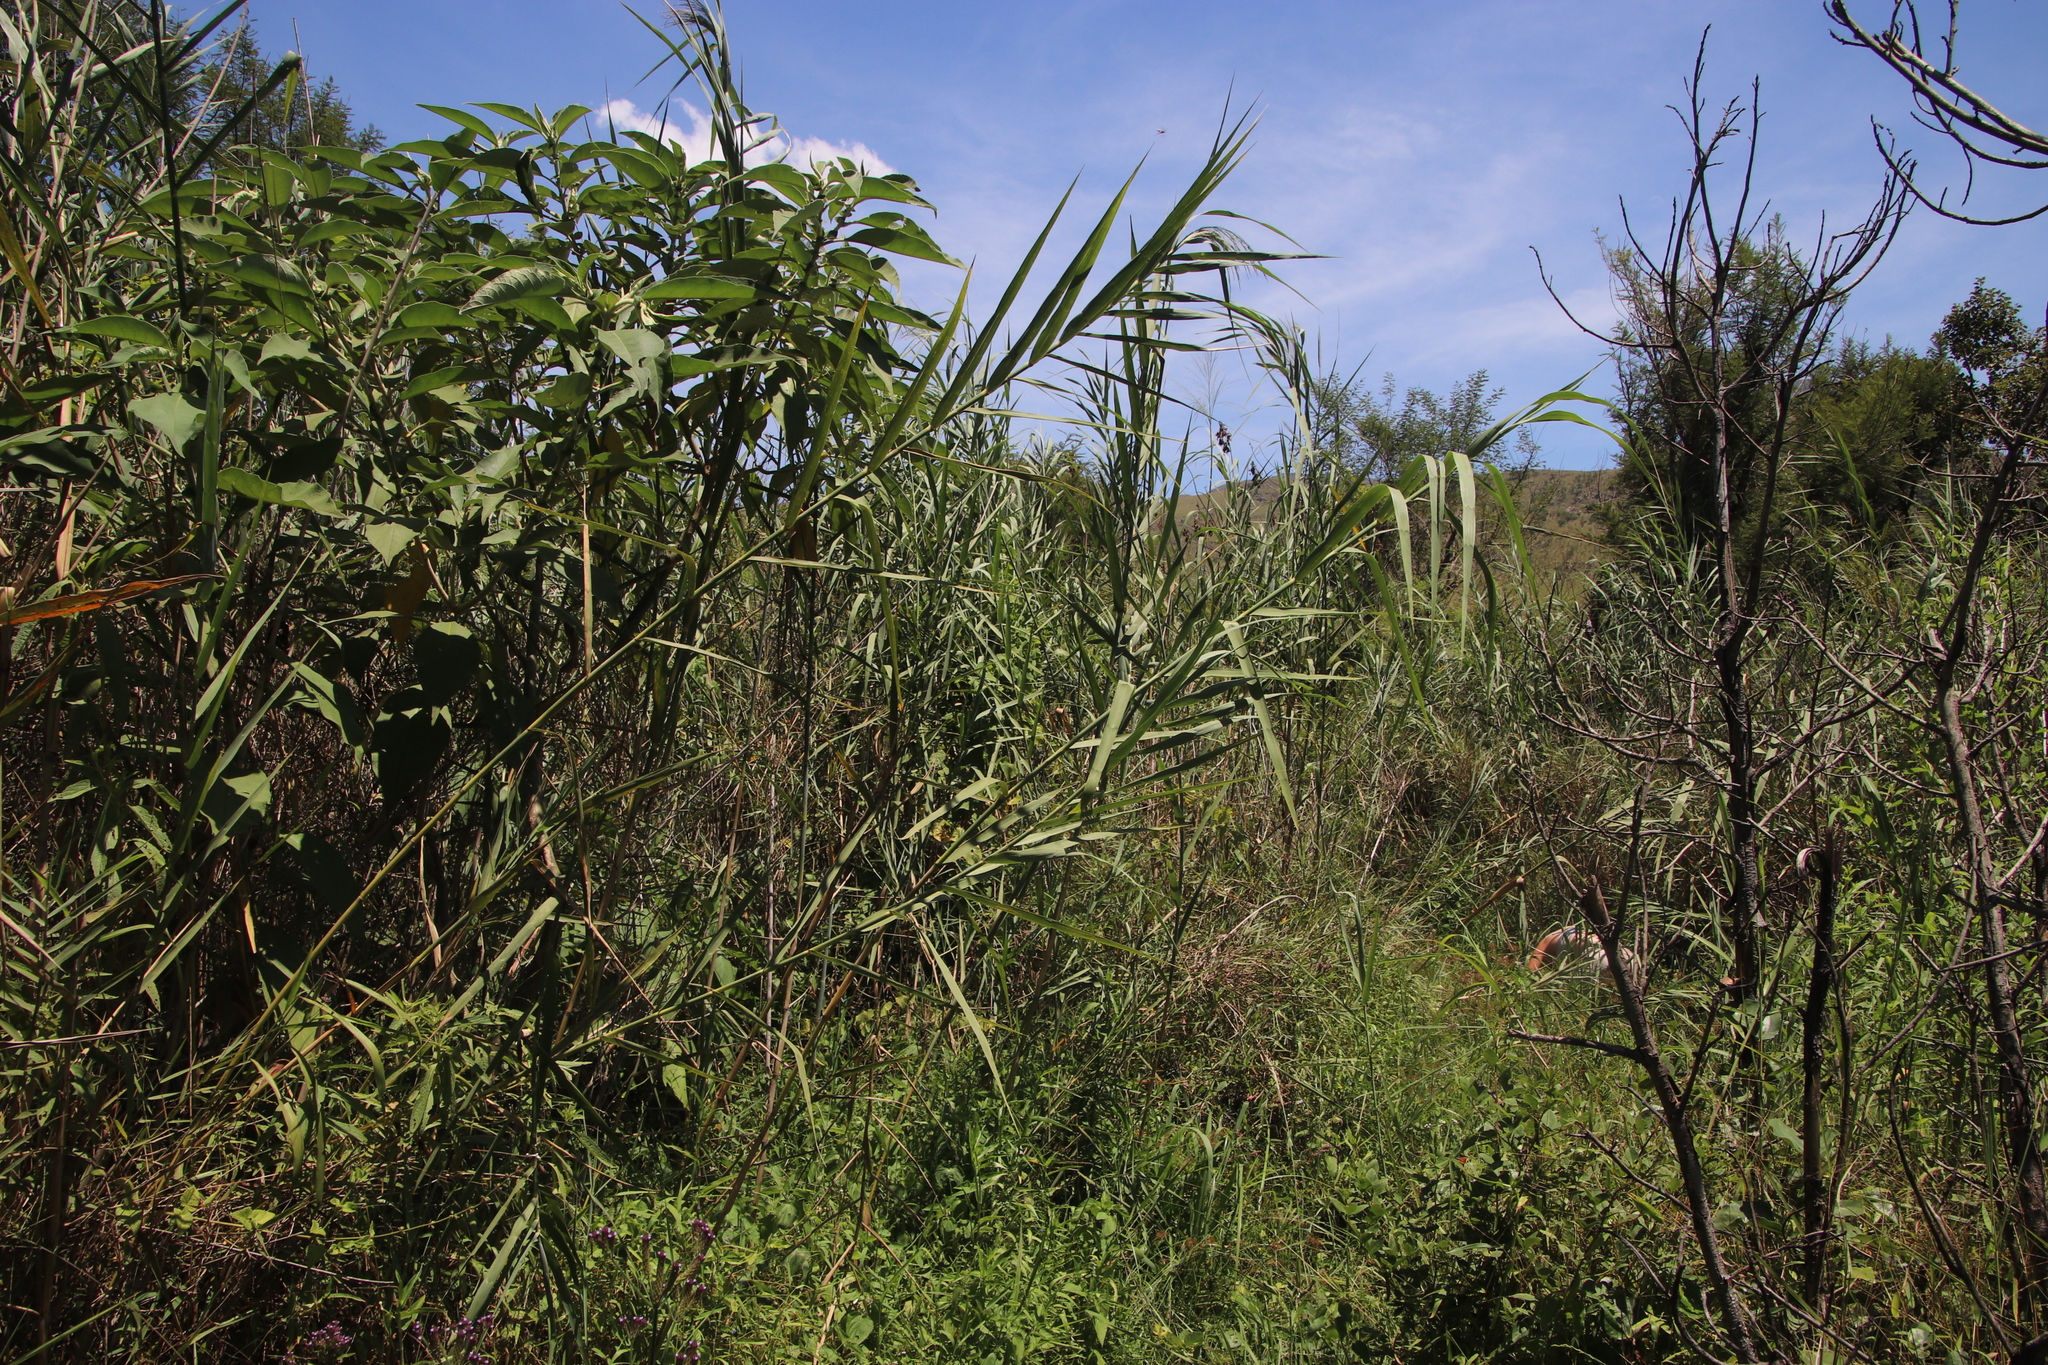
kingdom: Plantae
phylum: Tracheophyta
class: Liliopsida
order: Poales
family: Poaceae
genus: Phragmites
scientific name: Phragmites australis
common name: Common reed
